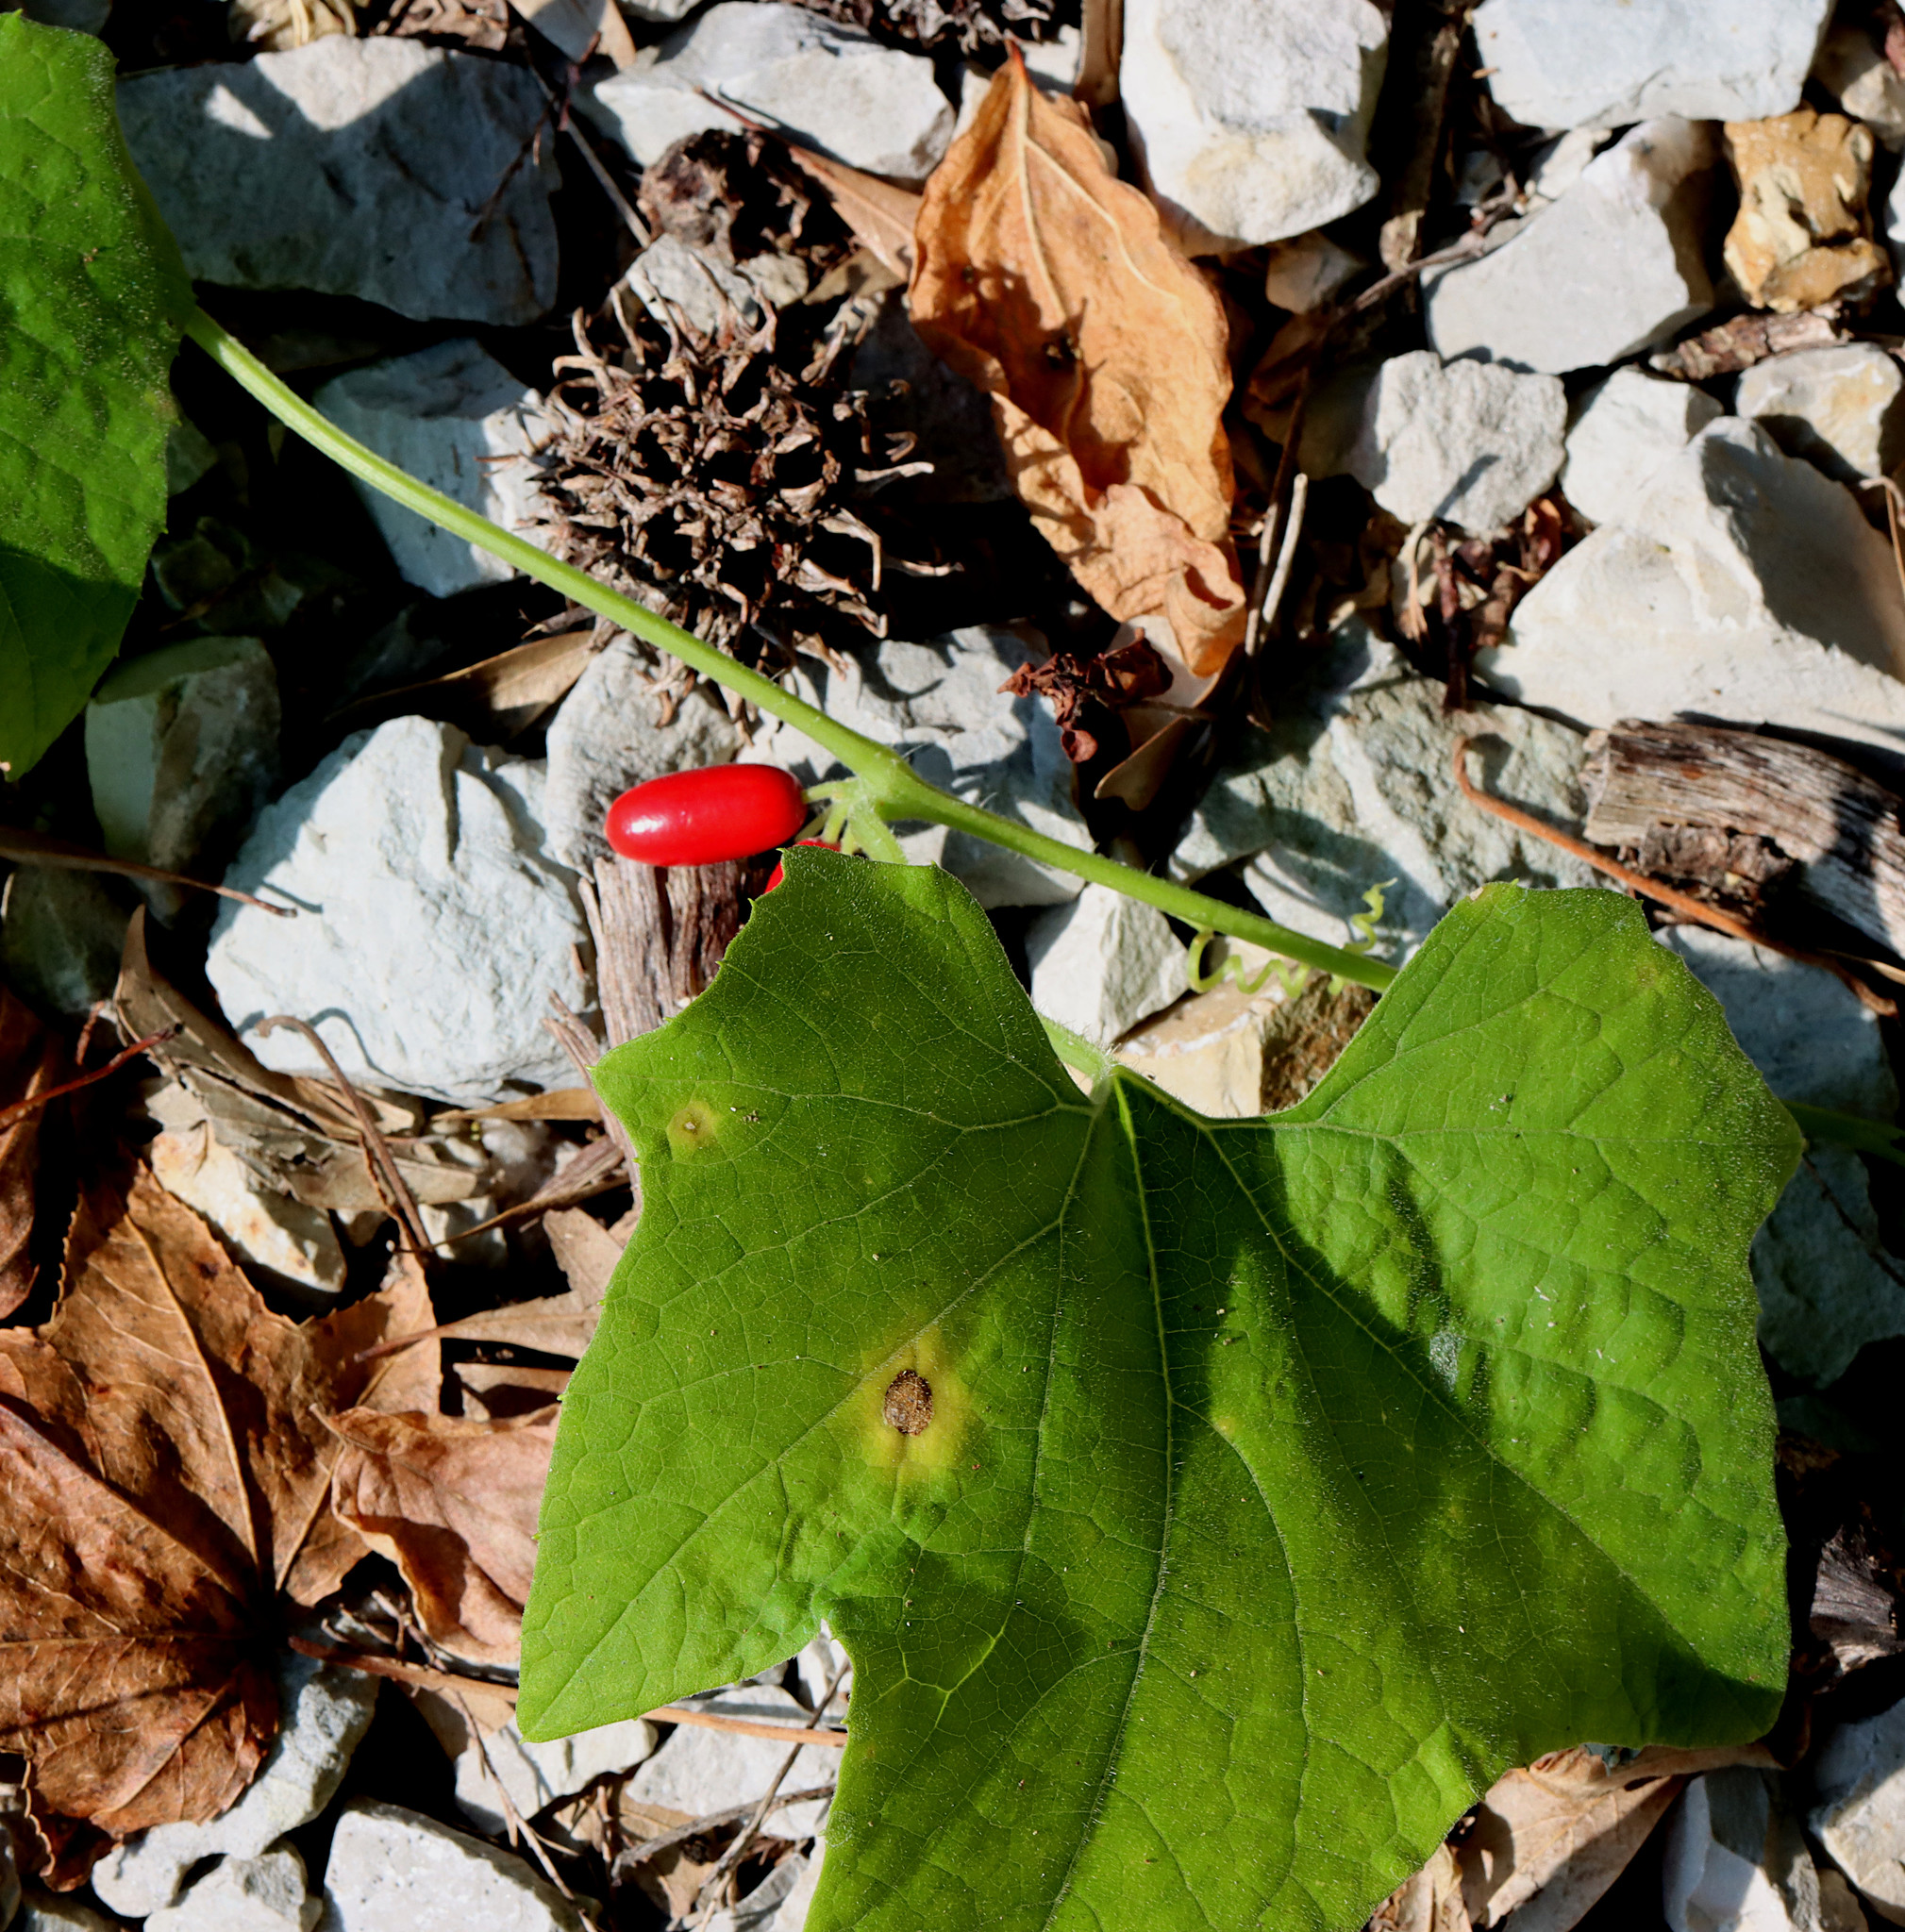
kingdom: Plantae
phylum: Tracheophyta
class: Magnoliopsida
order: Cucurbitales
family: Cucurbitaceae
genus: Cayaponia
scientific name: Cayaponia quinqueloba
